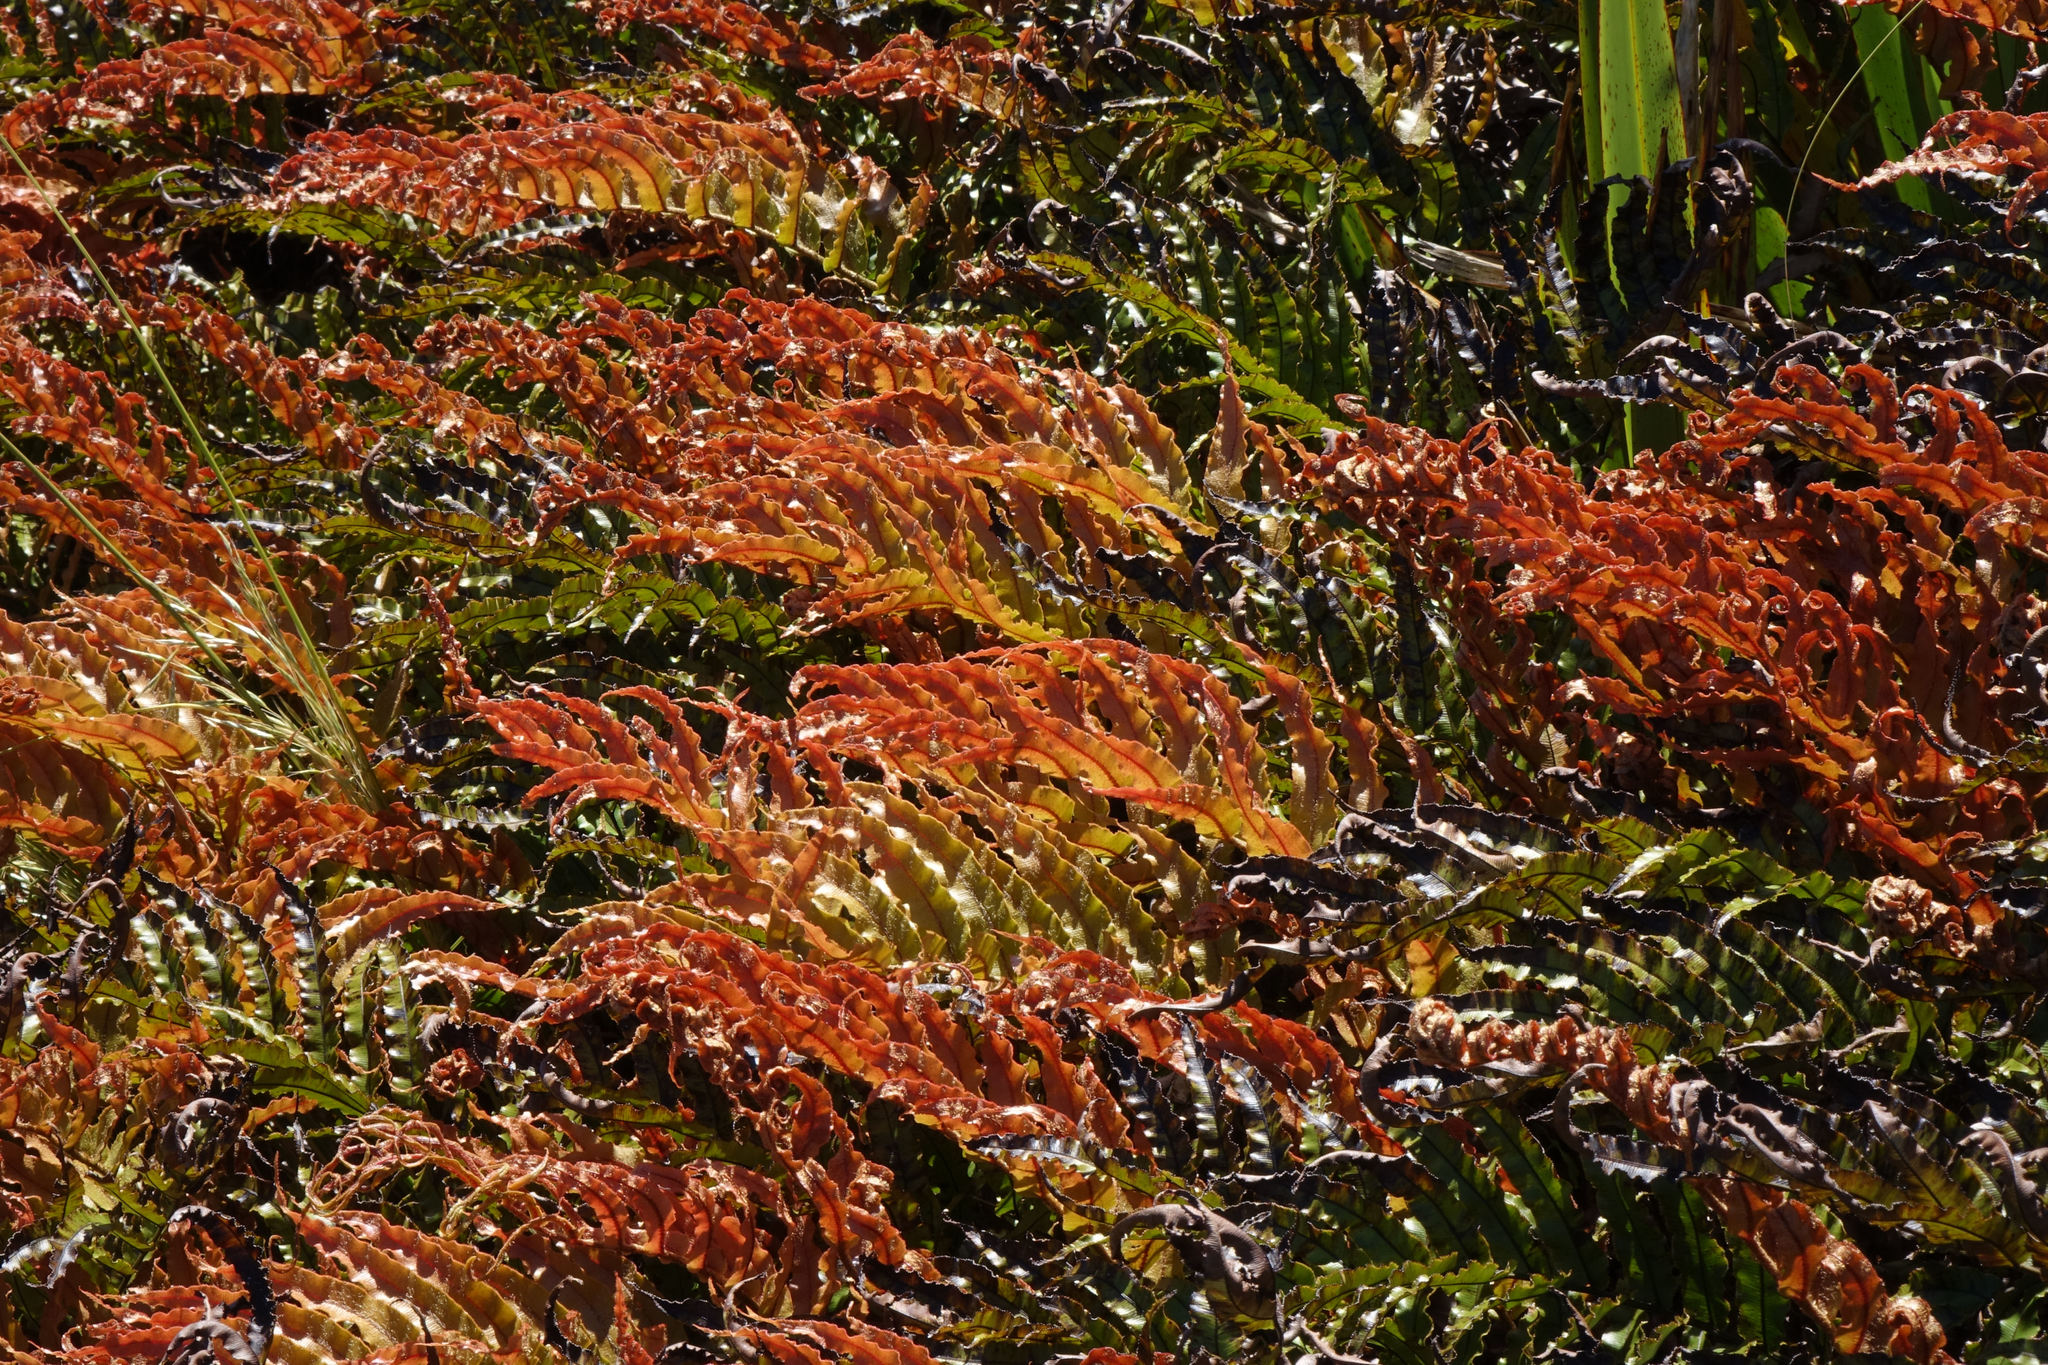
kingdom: Plantae
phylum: Tracheophyta
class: Polypodiopsida
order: Polypodiales
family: Blechnaceae
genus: Parablechnum
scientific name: Parablechnum montanum
